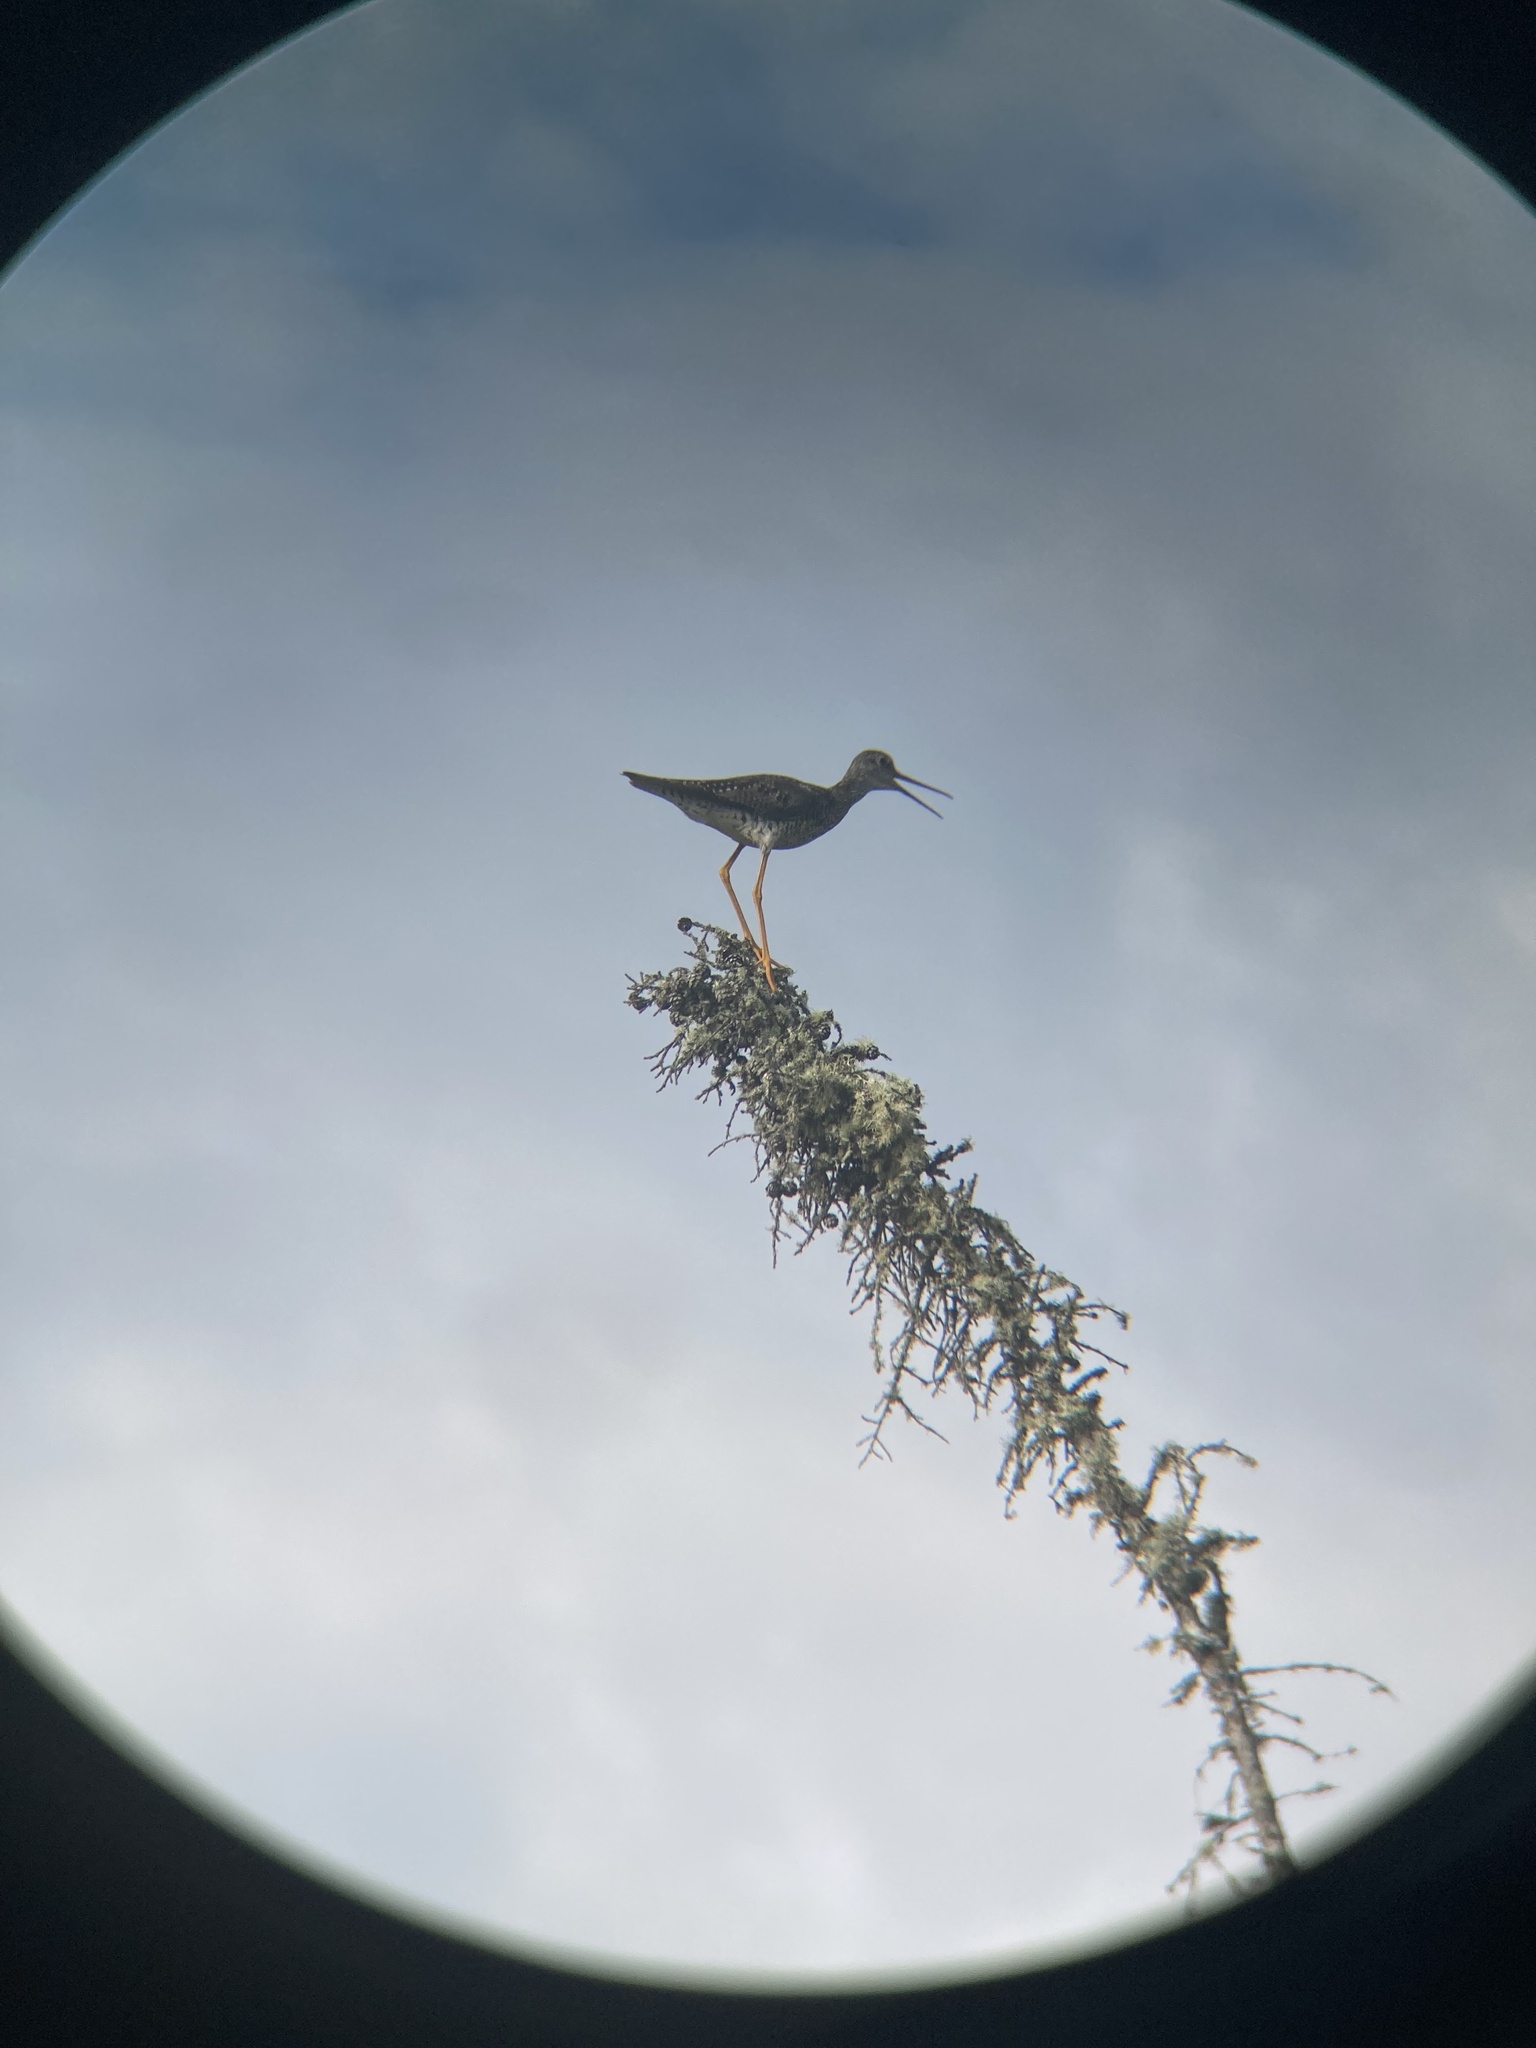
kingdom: Animalia
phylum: Chordata
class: Aves
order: Charadriiformes
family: Scolopacidae
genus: Tringa
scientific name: Tringa melanoleuca
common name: Greater yellowlegs
